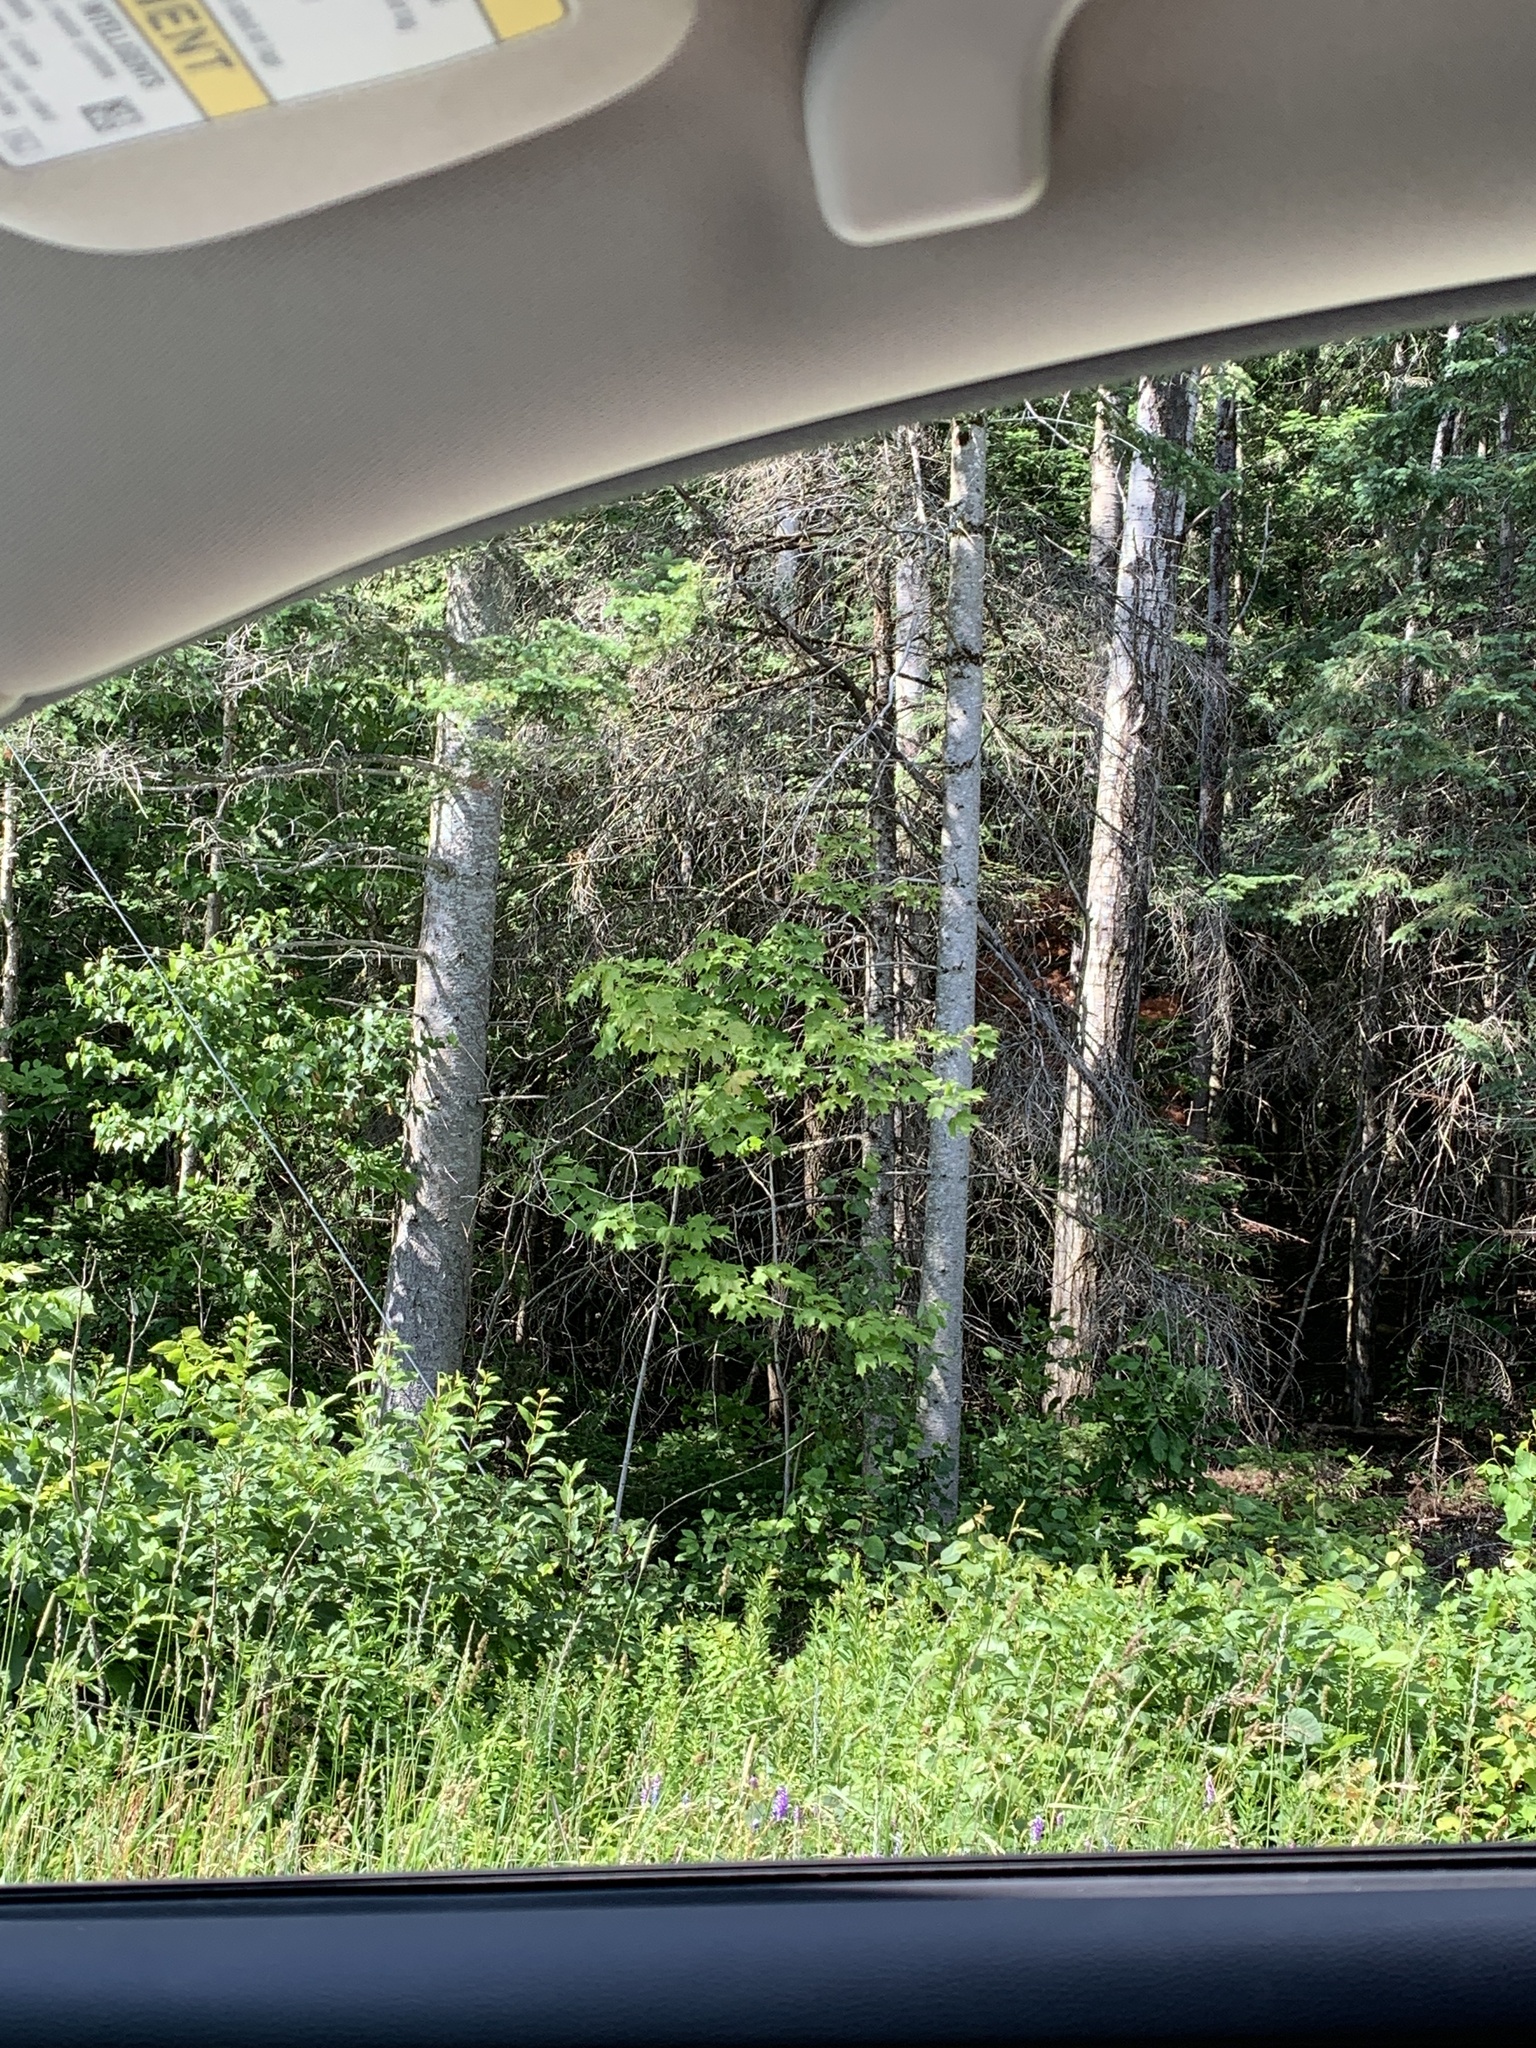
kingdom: Plantae
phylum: Tracheophyta
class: Pinopsida
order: Pinales
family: Pinaceae
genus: Abies
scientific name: Abies balsamea
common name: Balsam fir
